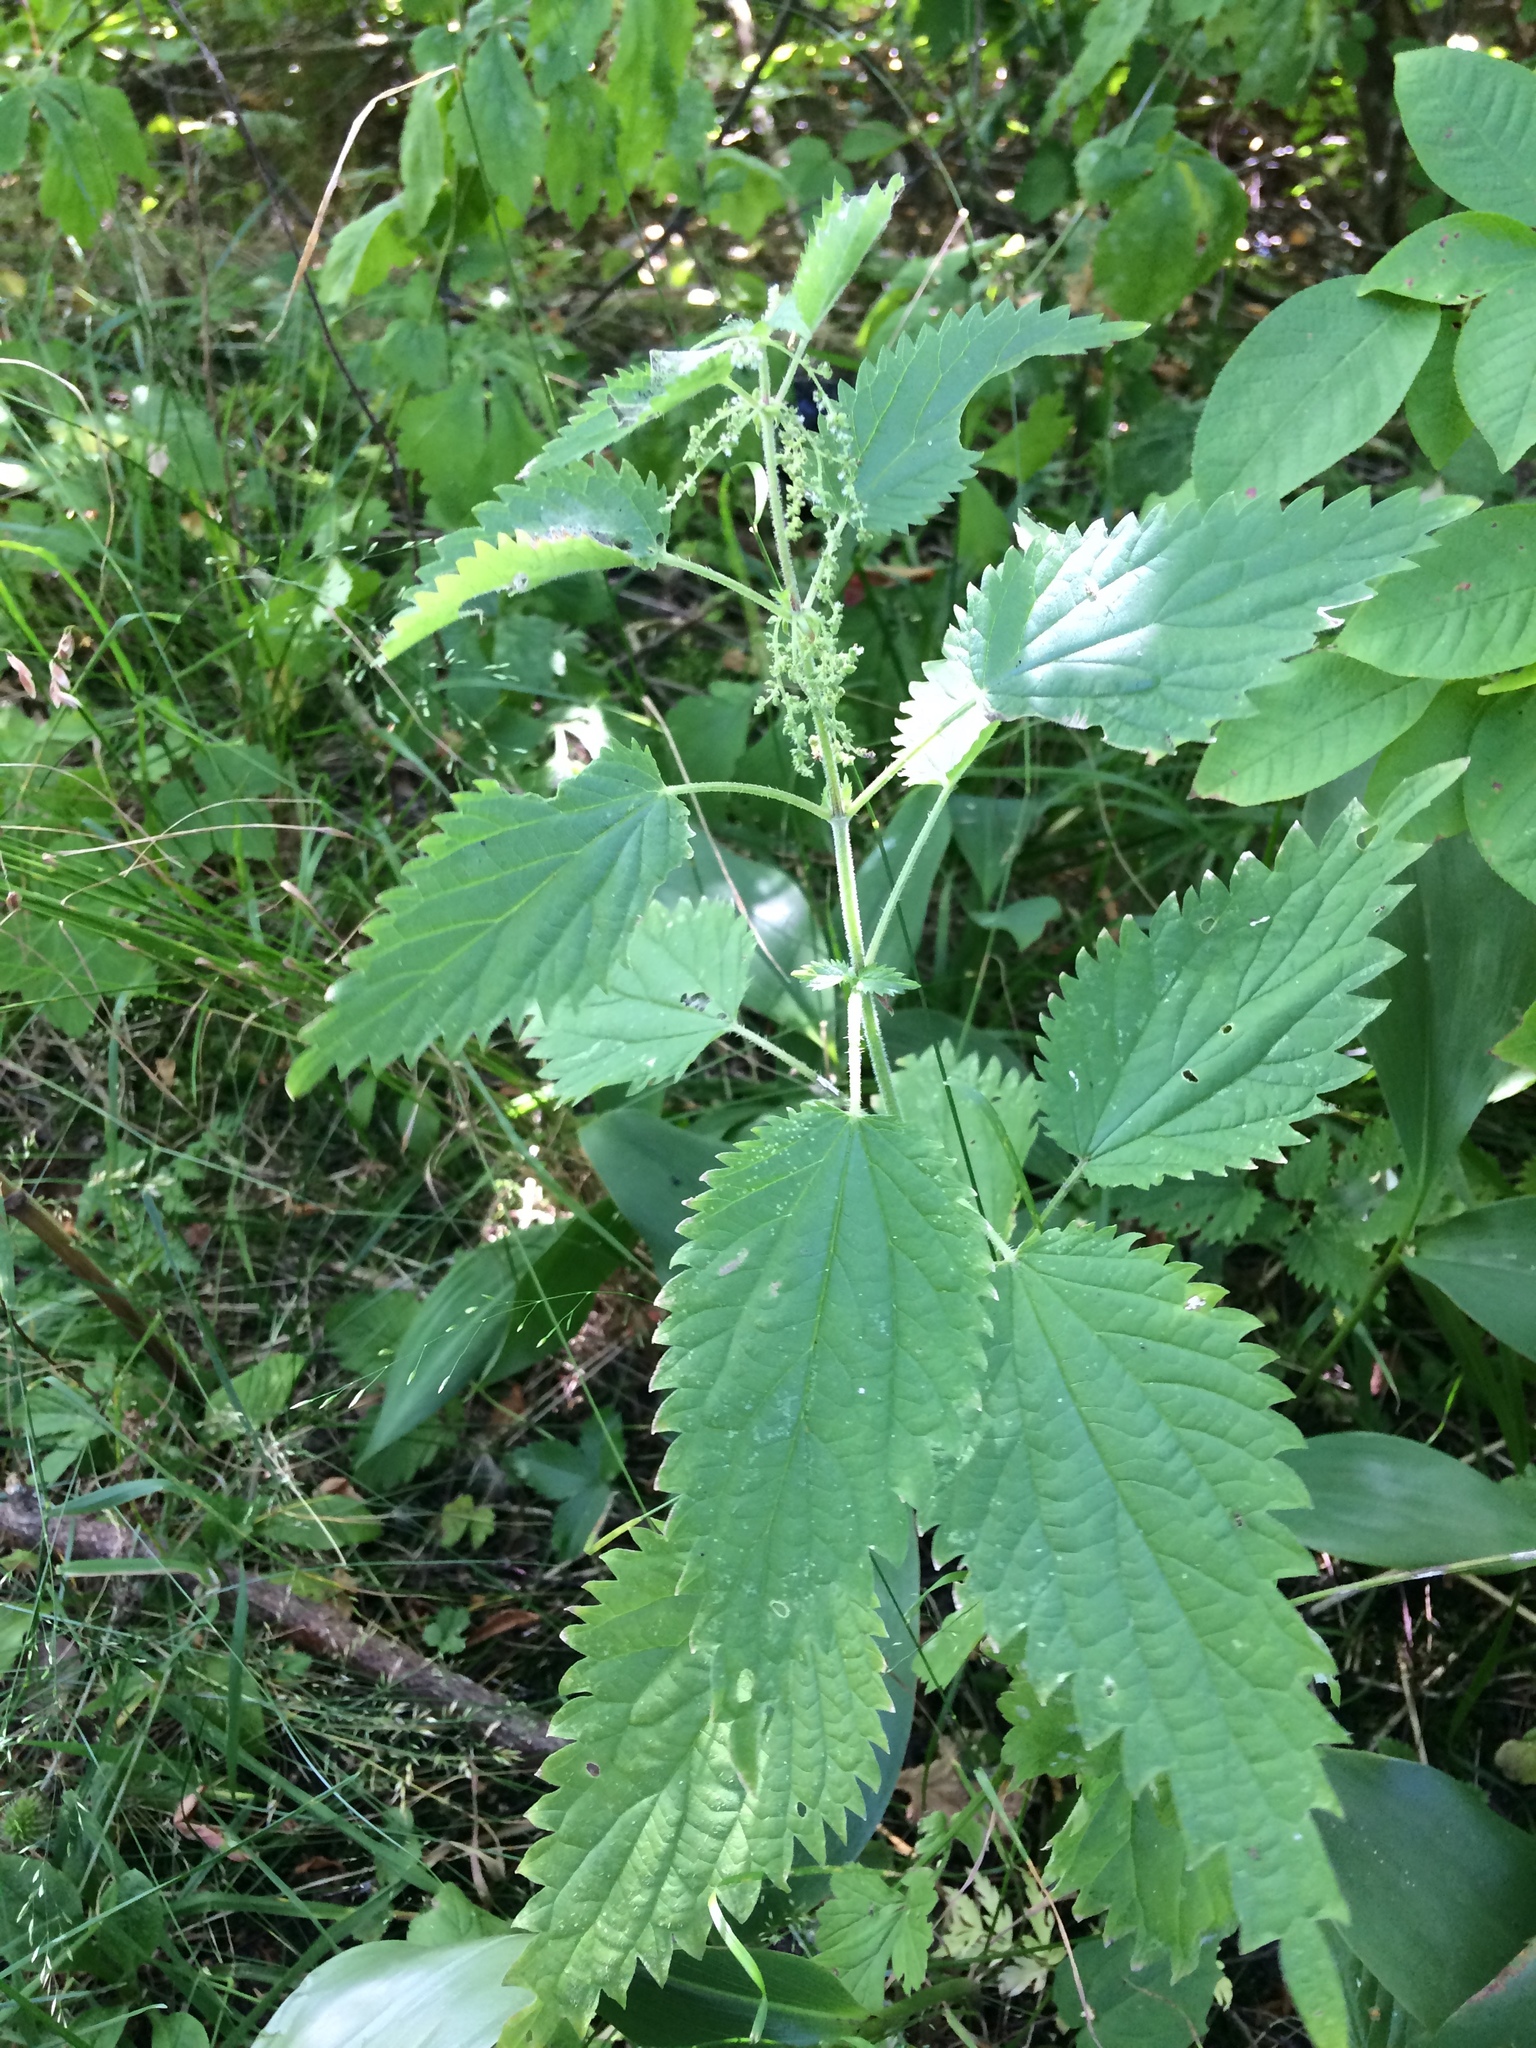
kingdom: Plantae
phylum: Tracheophyta
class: Magnoliopsida
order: Rosales
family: Urticaceae
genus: Urtica
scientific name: Urtica dioica
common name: Common nettle
